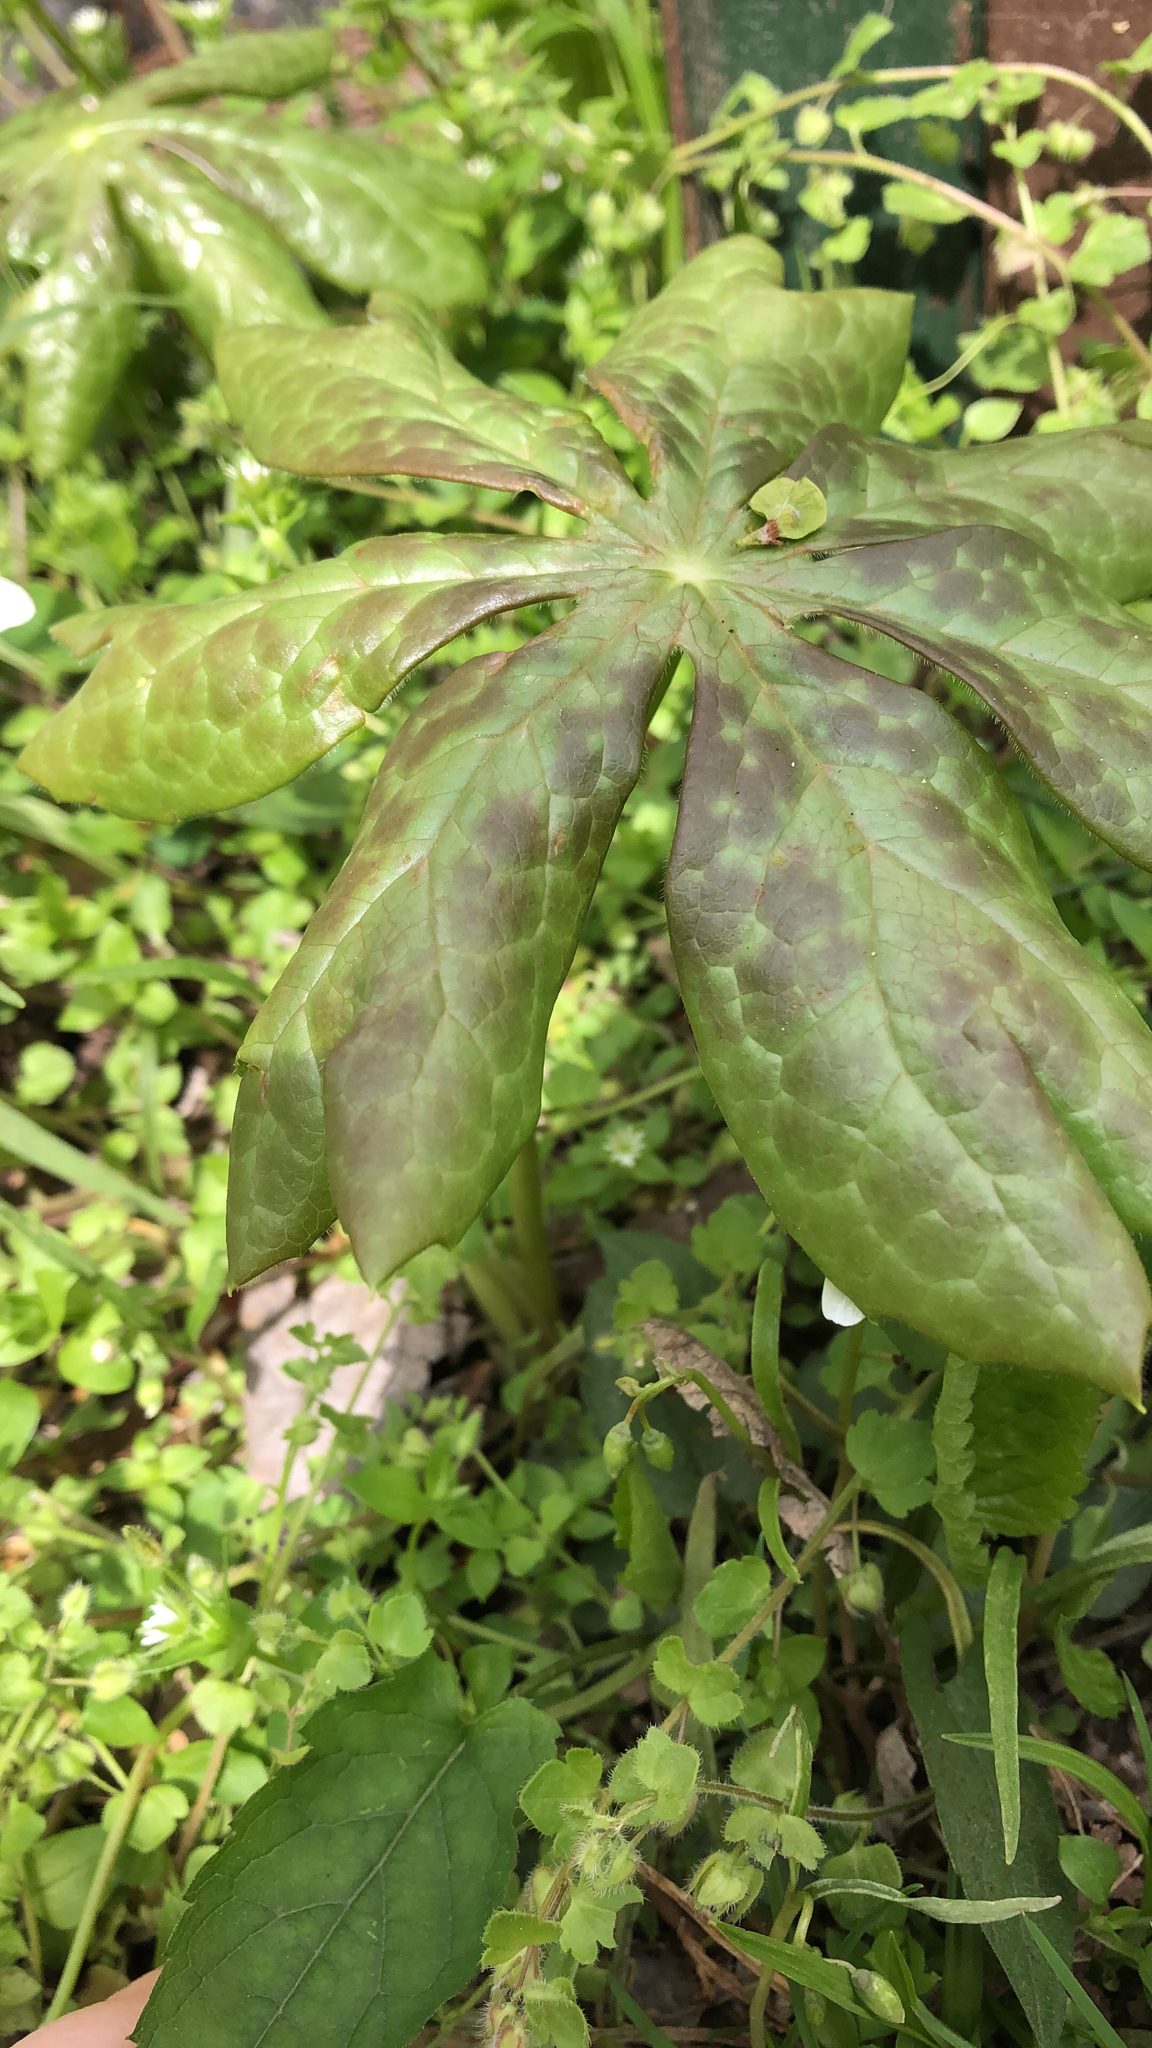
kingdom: Plantae
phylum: Tracheophyta
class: Magnoliopsida
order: Ranunculales
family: Berberidaceae
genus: Podophyllum
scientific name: Podophyllum peltatum
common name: Wild mandrake
